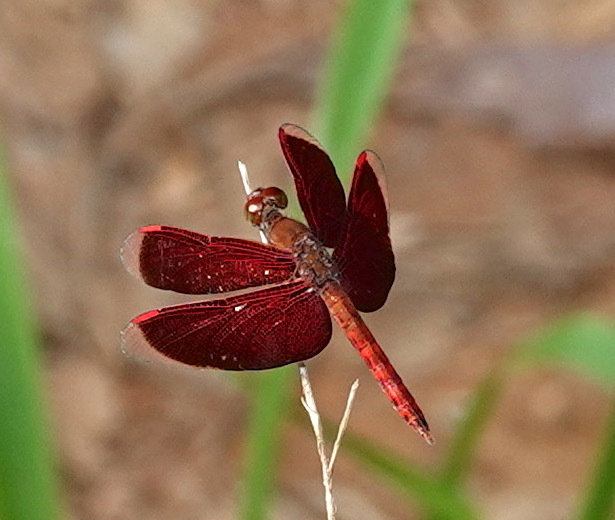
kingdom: Animalia
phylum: Arthropoda
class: Insecta
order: Odonata
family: Libellulidae
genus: Neurothemis
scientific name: Neurothemis fluctuans
